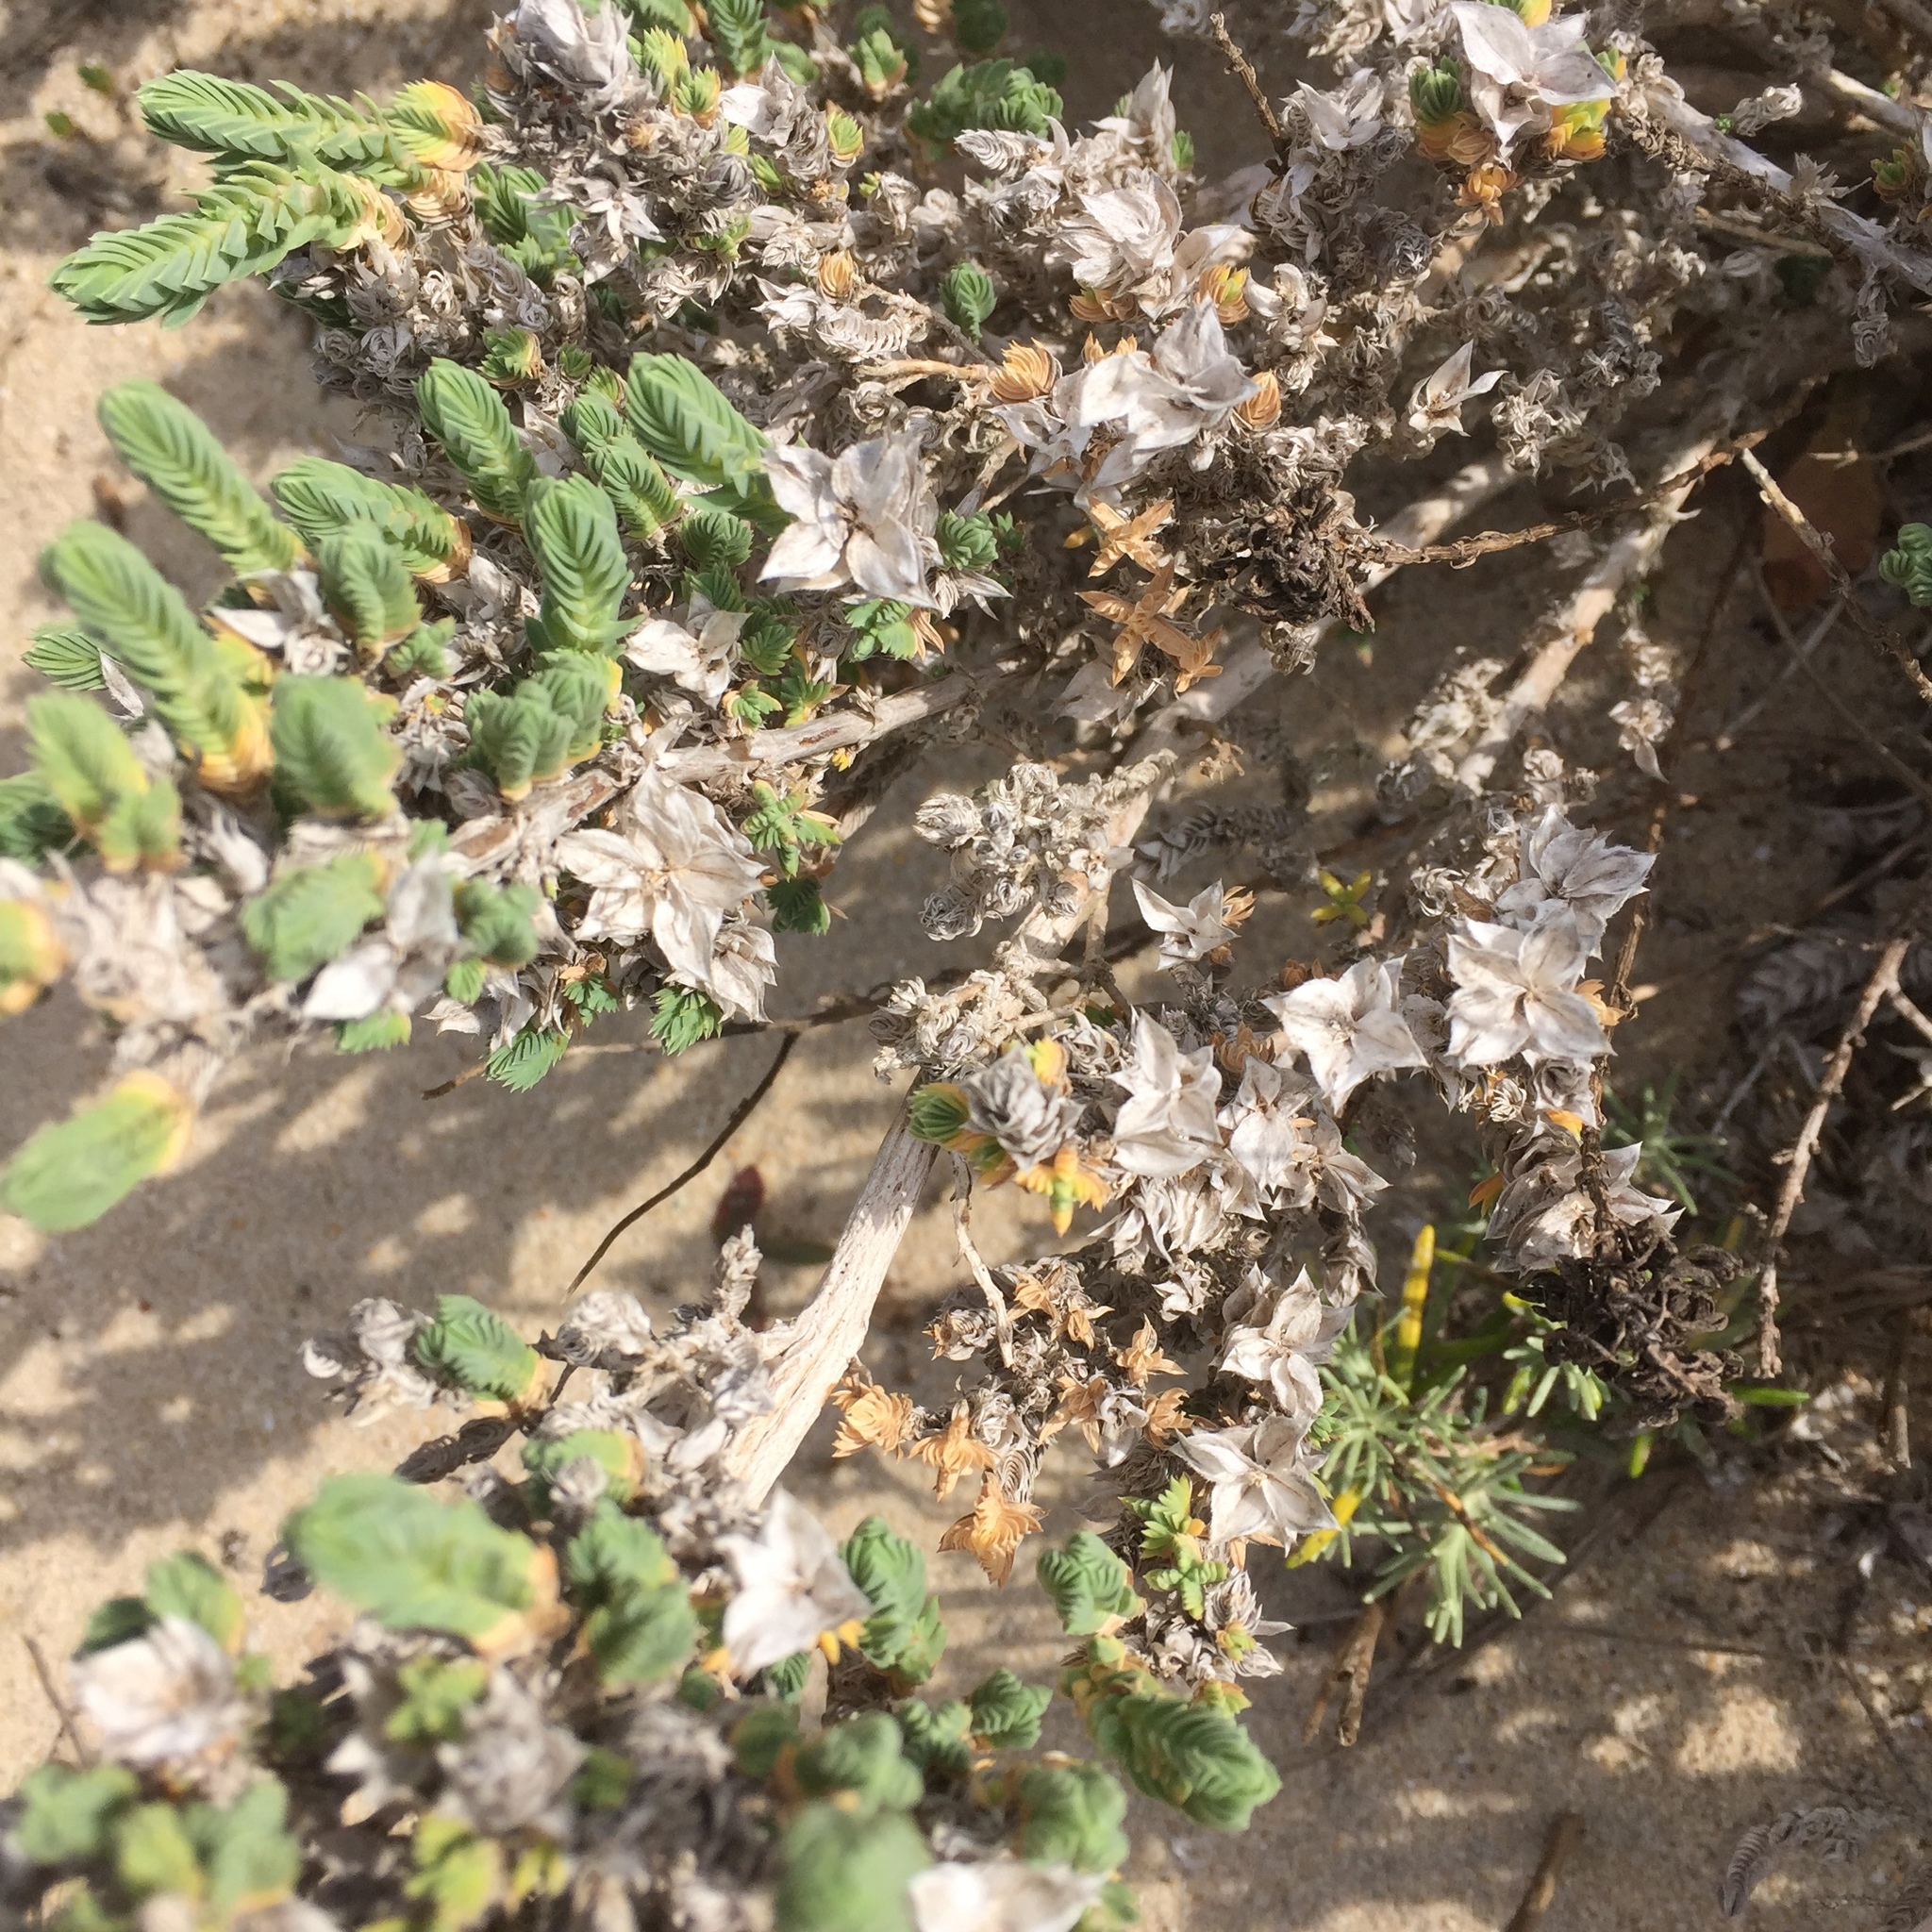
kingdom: Plantae
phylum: Tracheophyta
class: Magnoliopsida
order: Gentianales
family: Rubiaceae
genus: Crucianella
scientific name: Crucianella maritima
